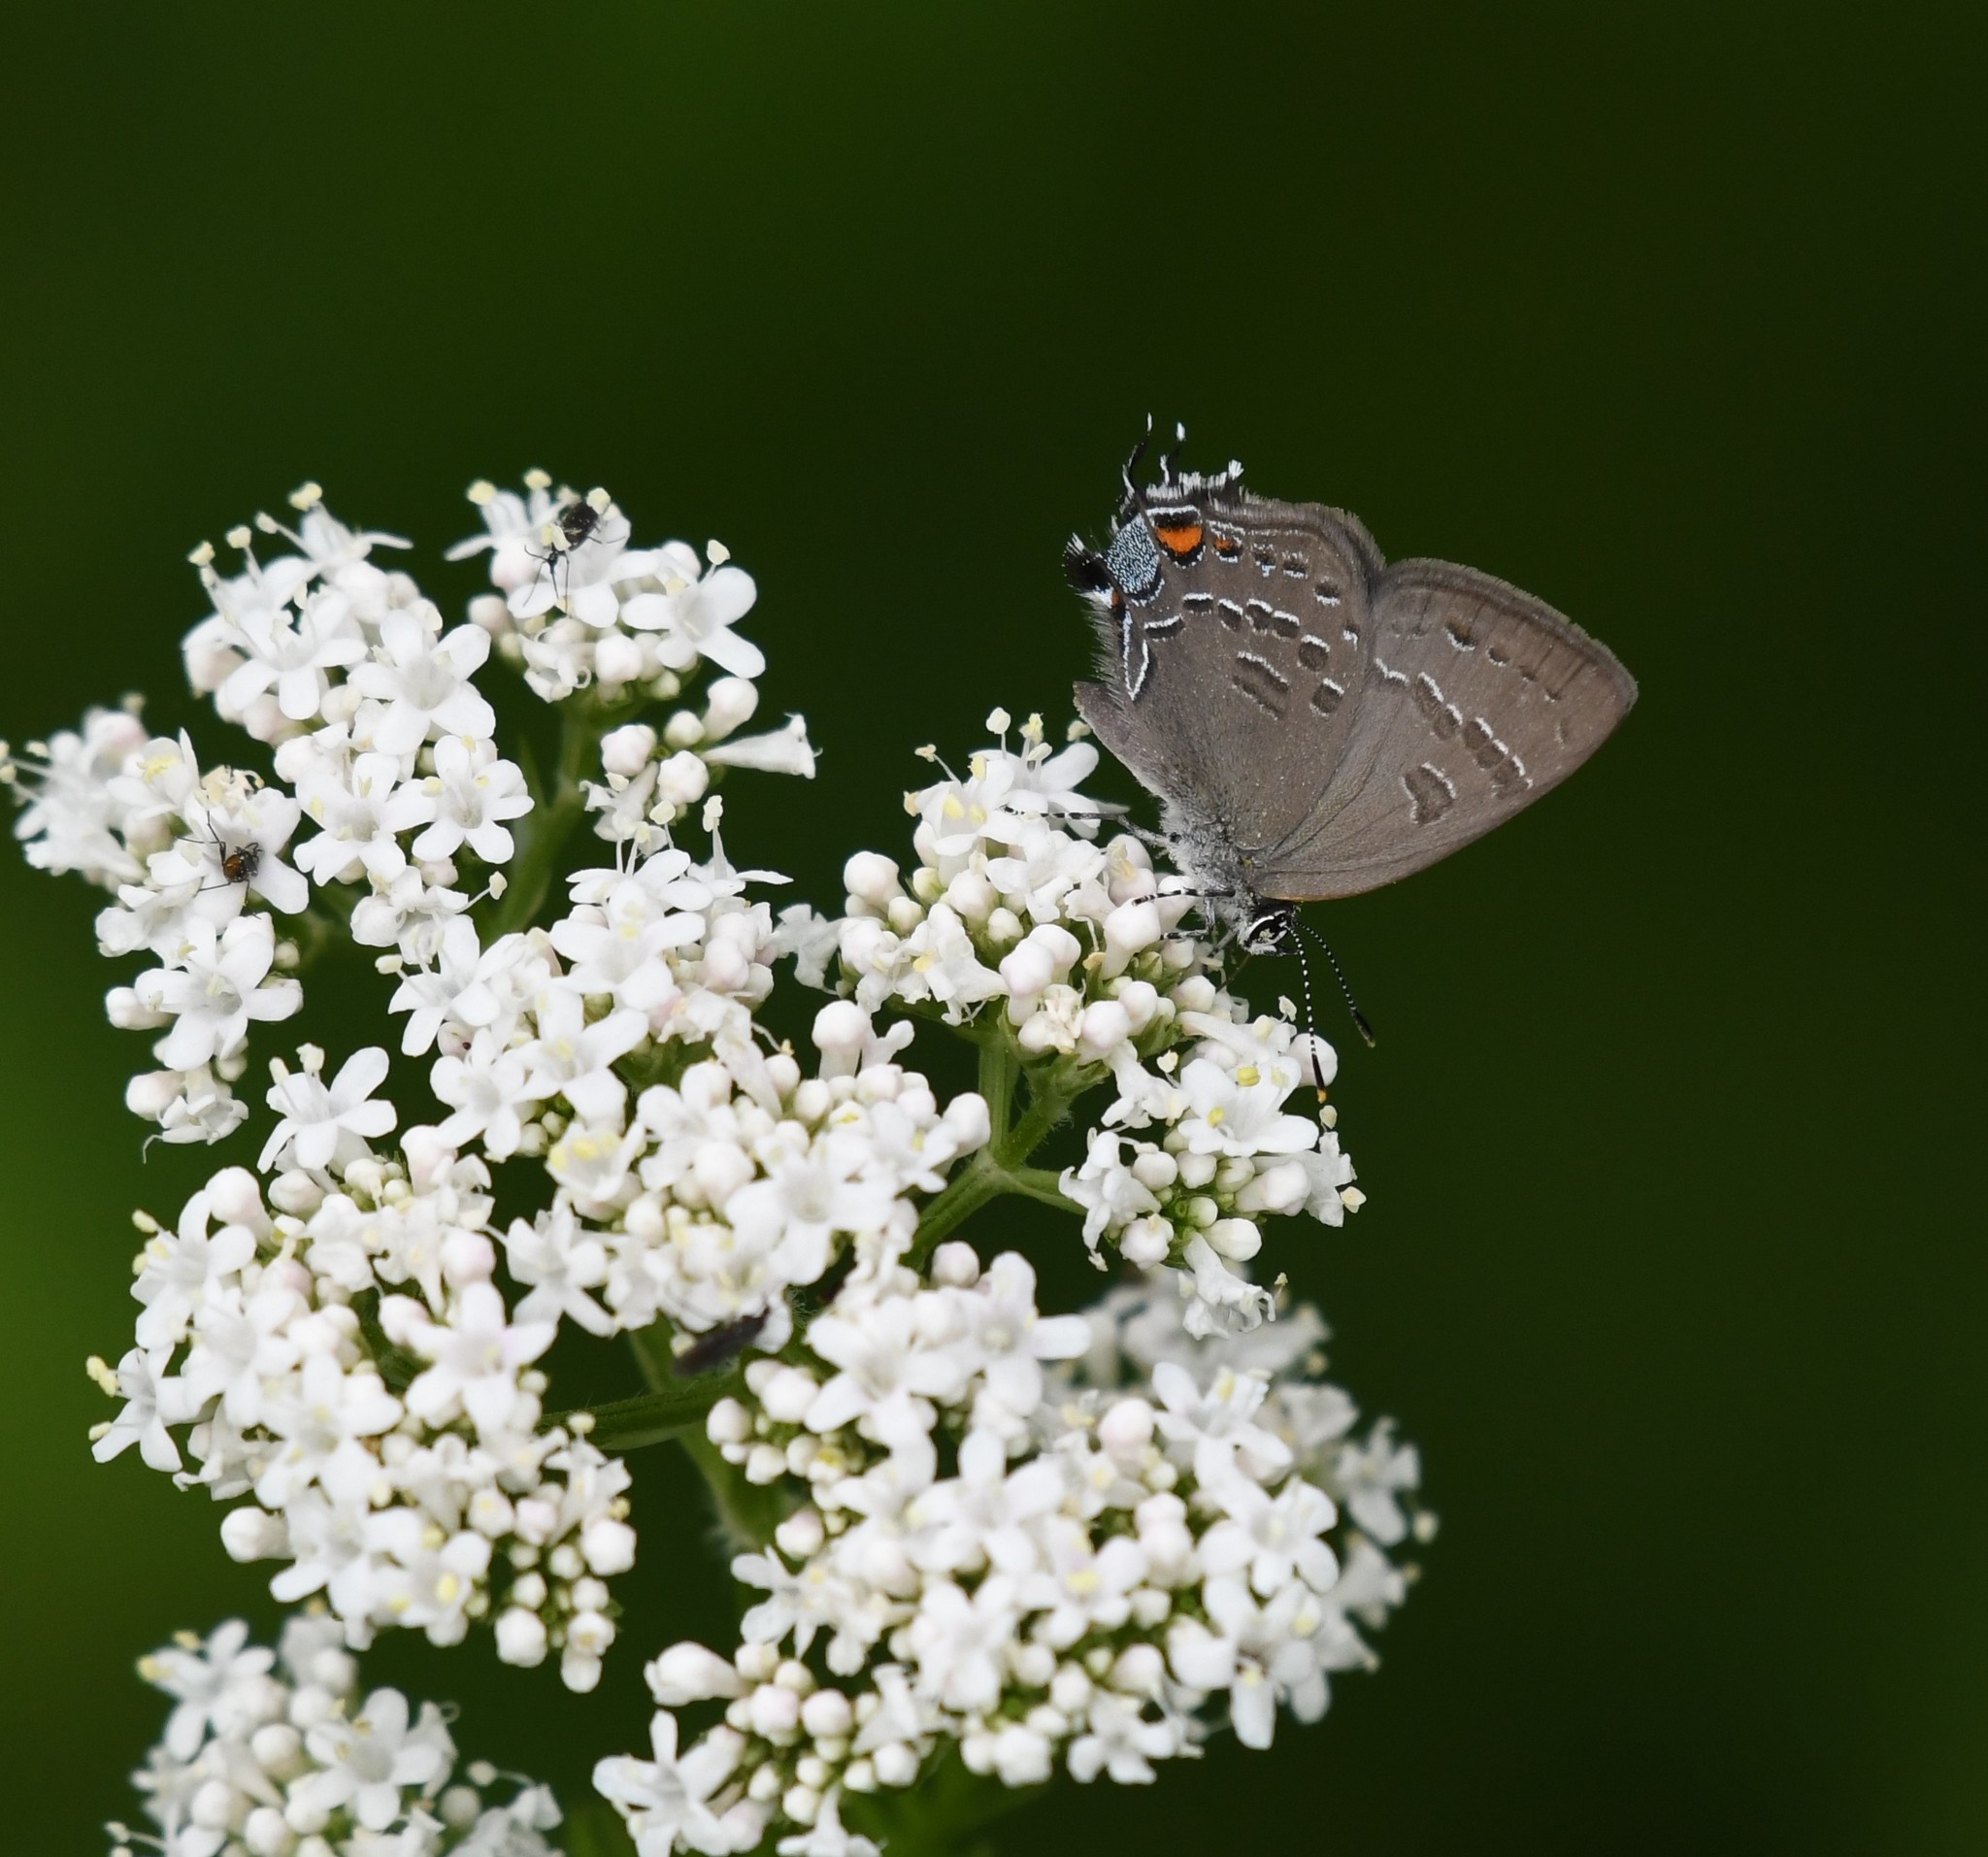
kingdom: Animalia
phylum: Arthropoda
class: Insecta
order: Lepidoptera
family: Lycaenidae
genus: Satyrium
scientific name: Satyrium calanus
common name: Banded hairstreak
